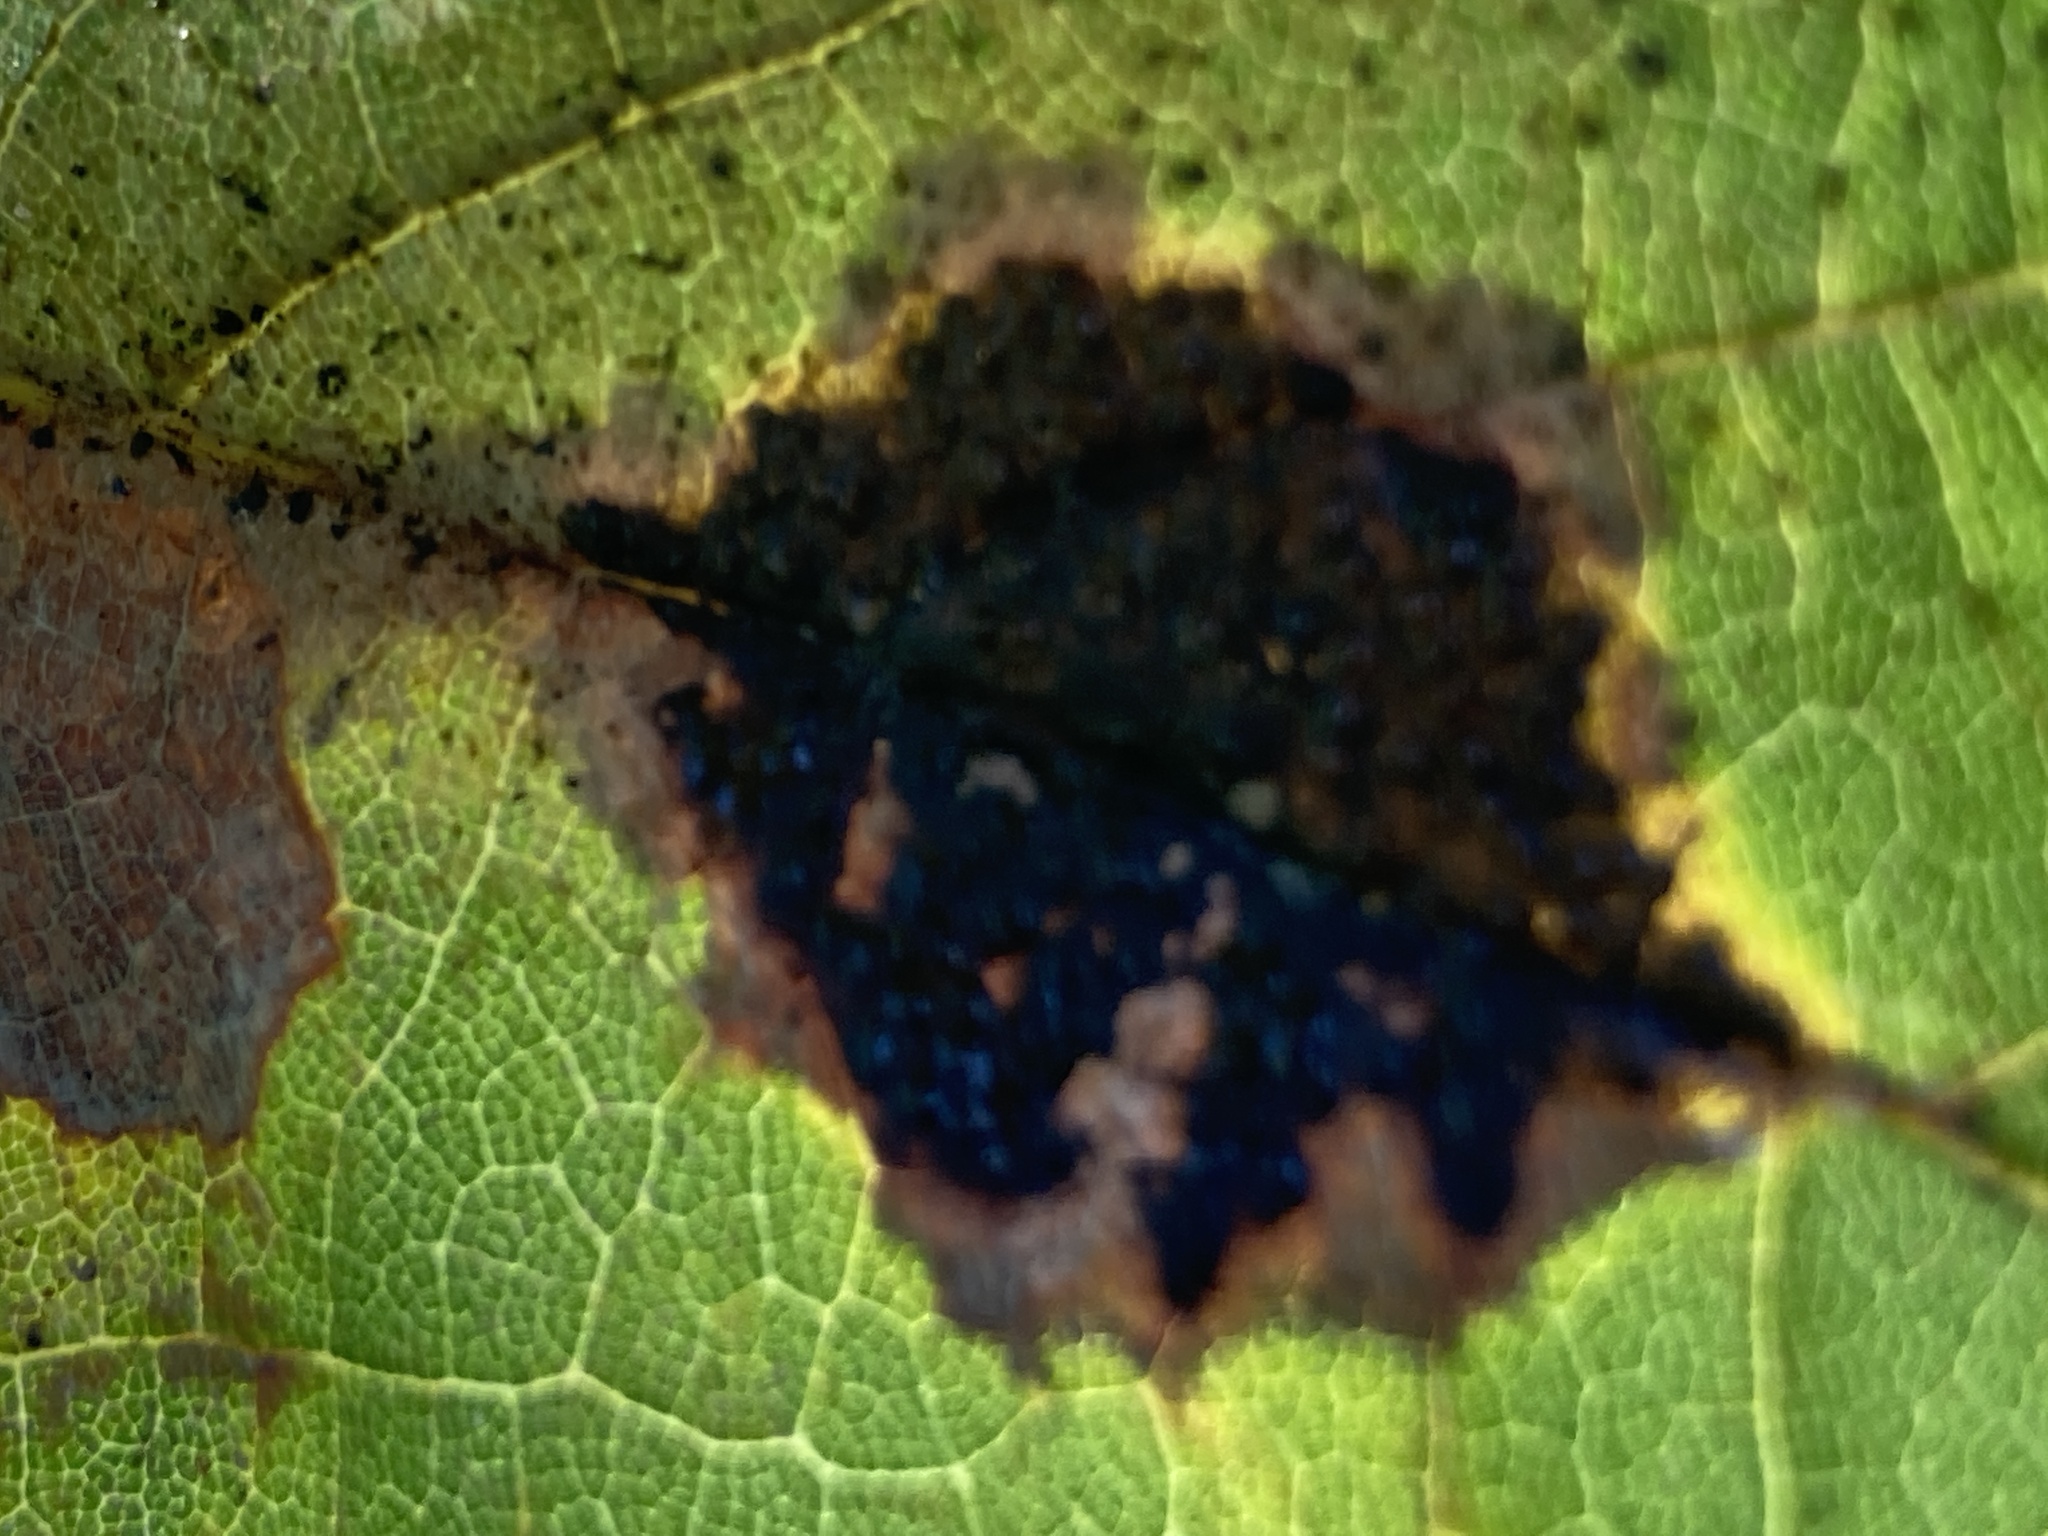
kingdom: Fungi
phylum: Ascomycota
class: Leotiomycetes
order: Rhytismatales
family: Rhytismataceae
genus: Rhytisma
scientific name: Rhytisma acerinum
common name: European tar spot
